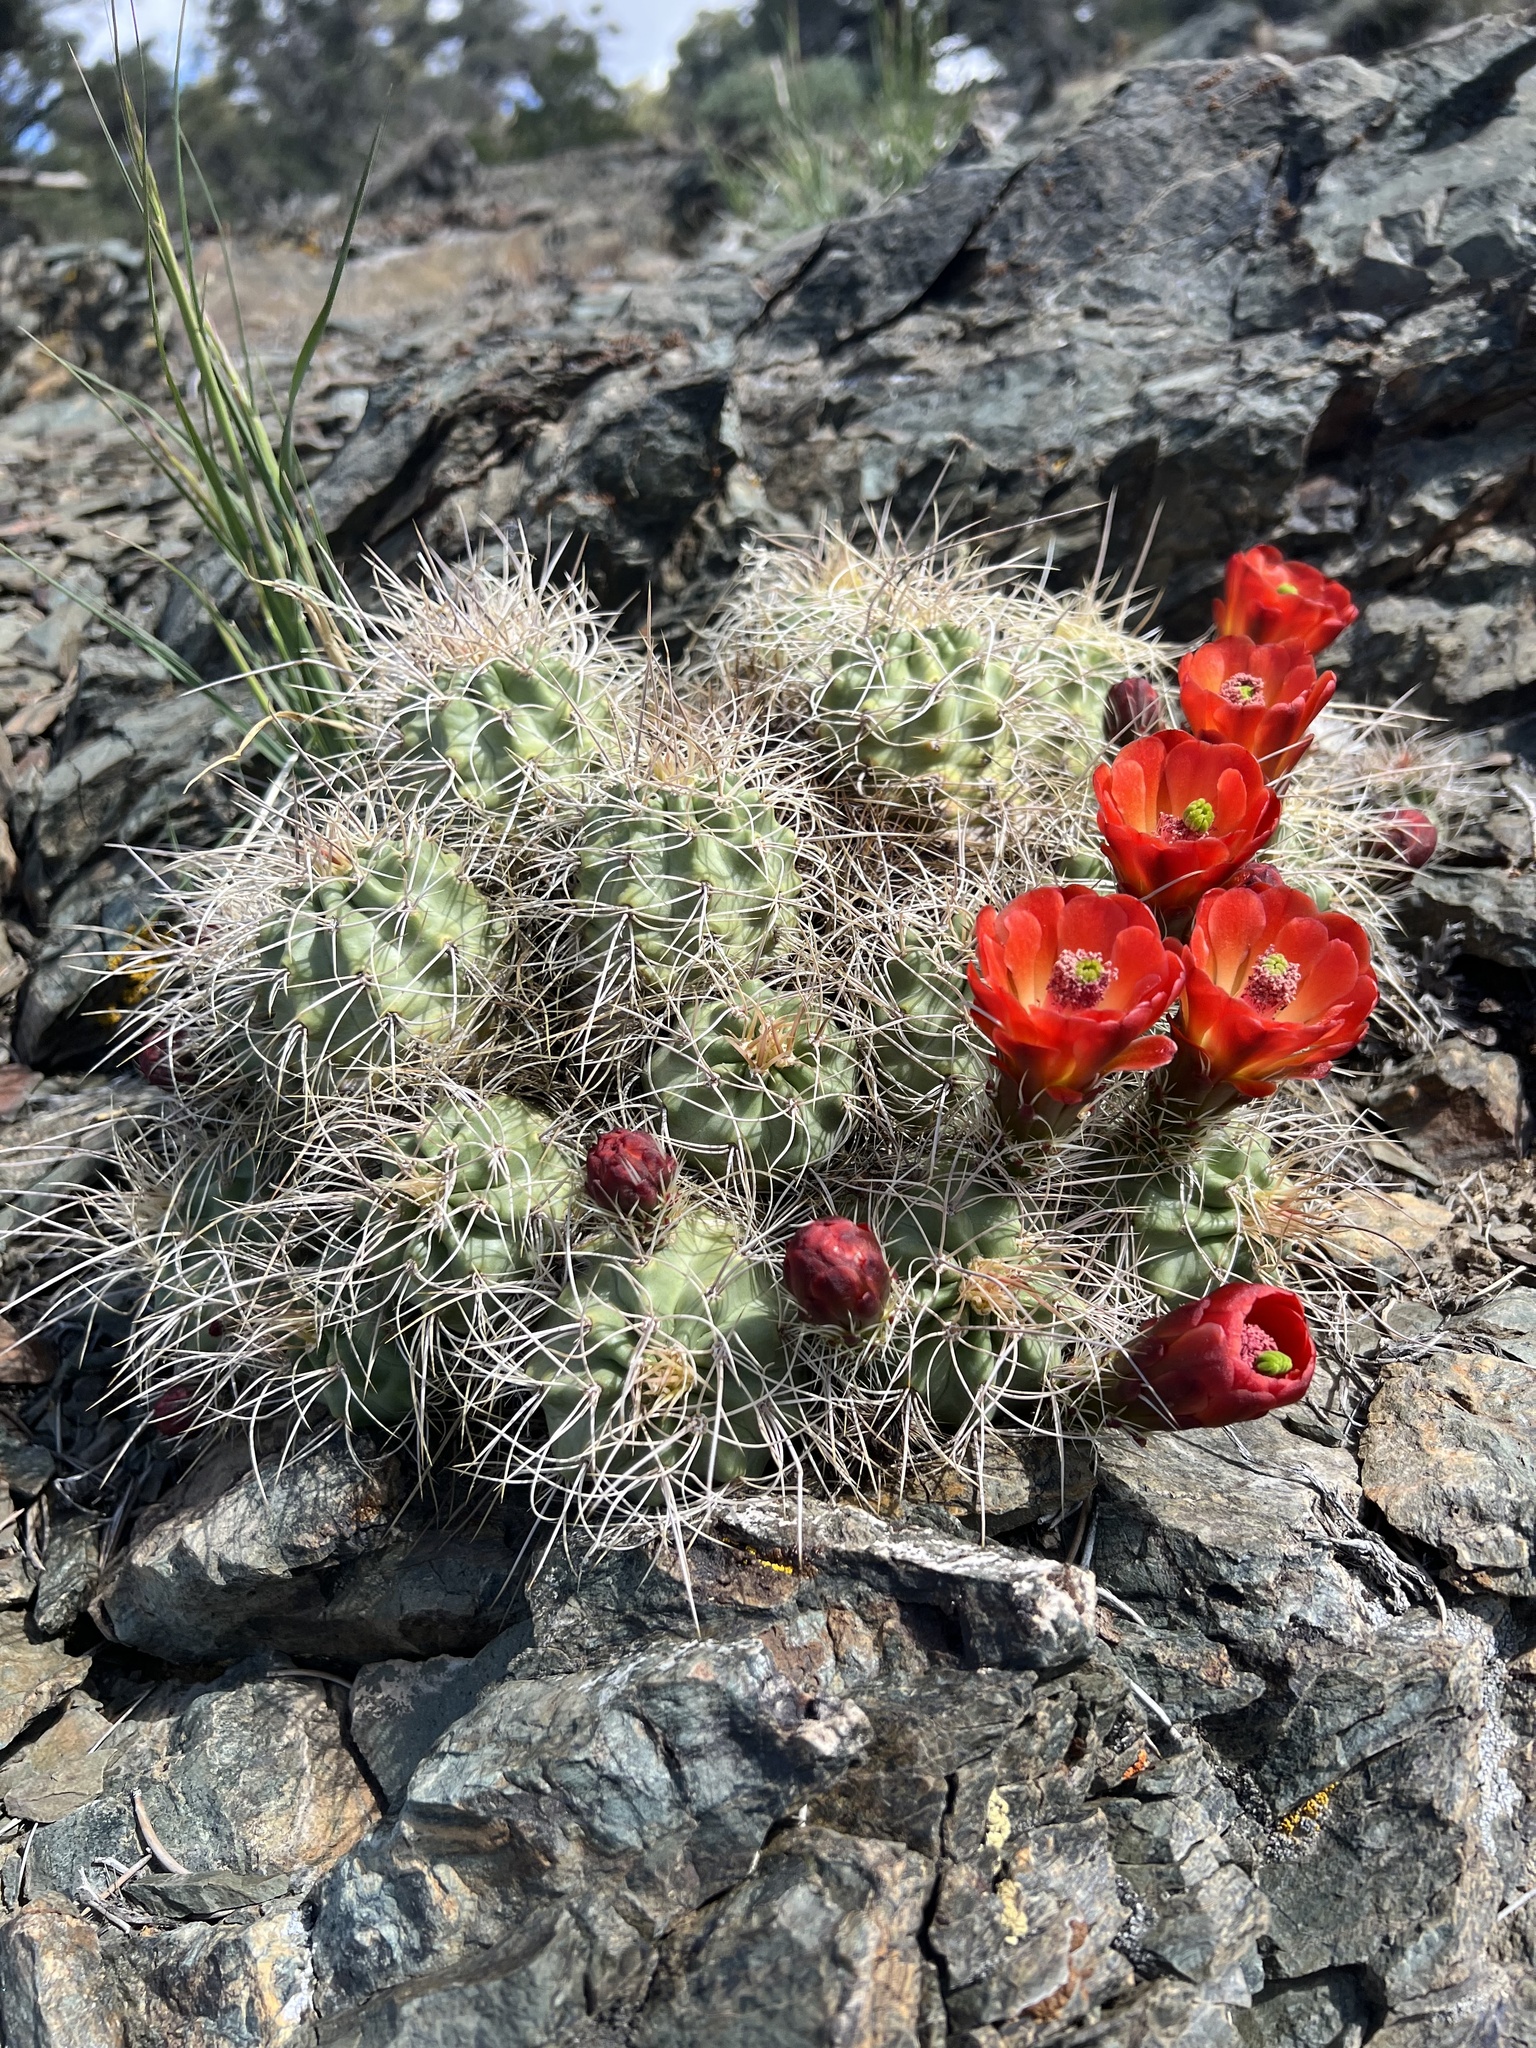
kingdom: Plantae
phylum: Tracheophyta
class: Magnoliopsida
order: Caryophyllales
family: Cactaceae
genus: Echinocereus
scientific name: Echinocereus triglochidiatus
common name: Claretcup hedgehog
